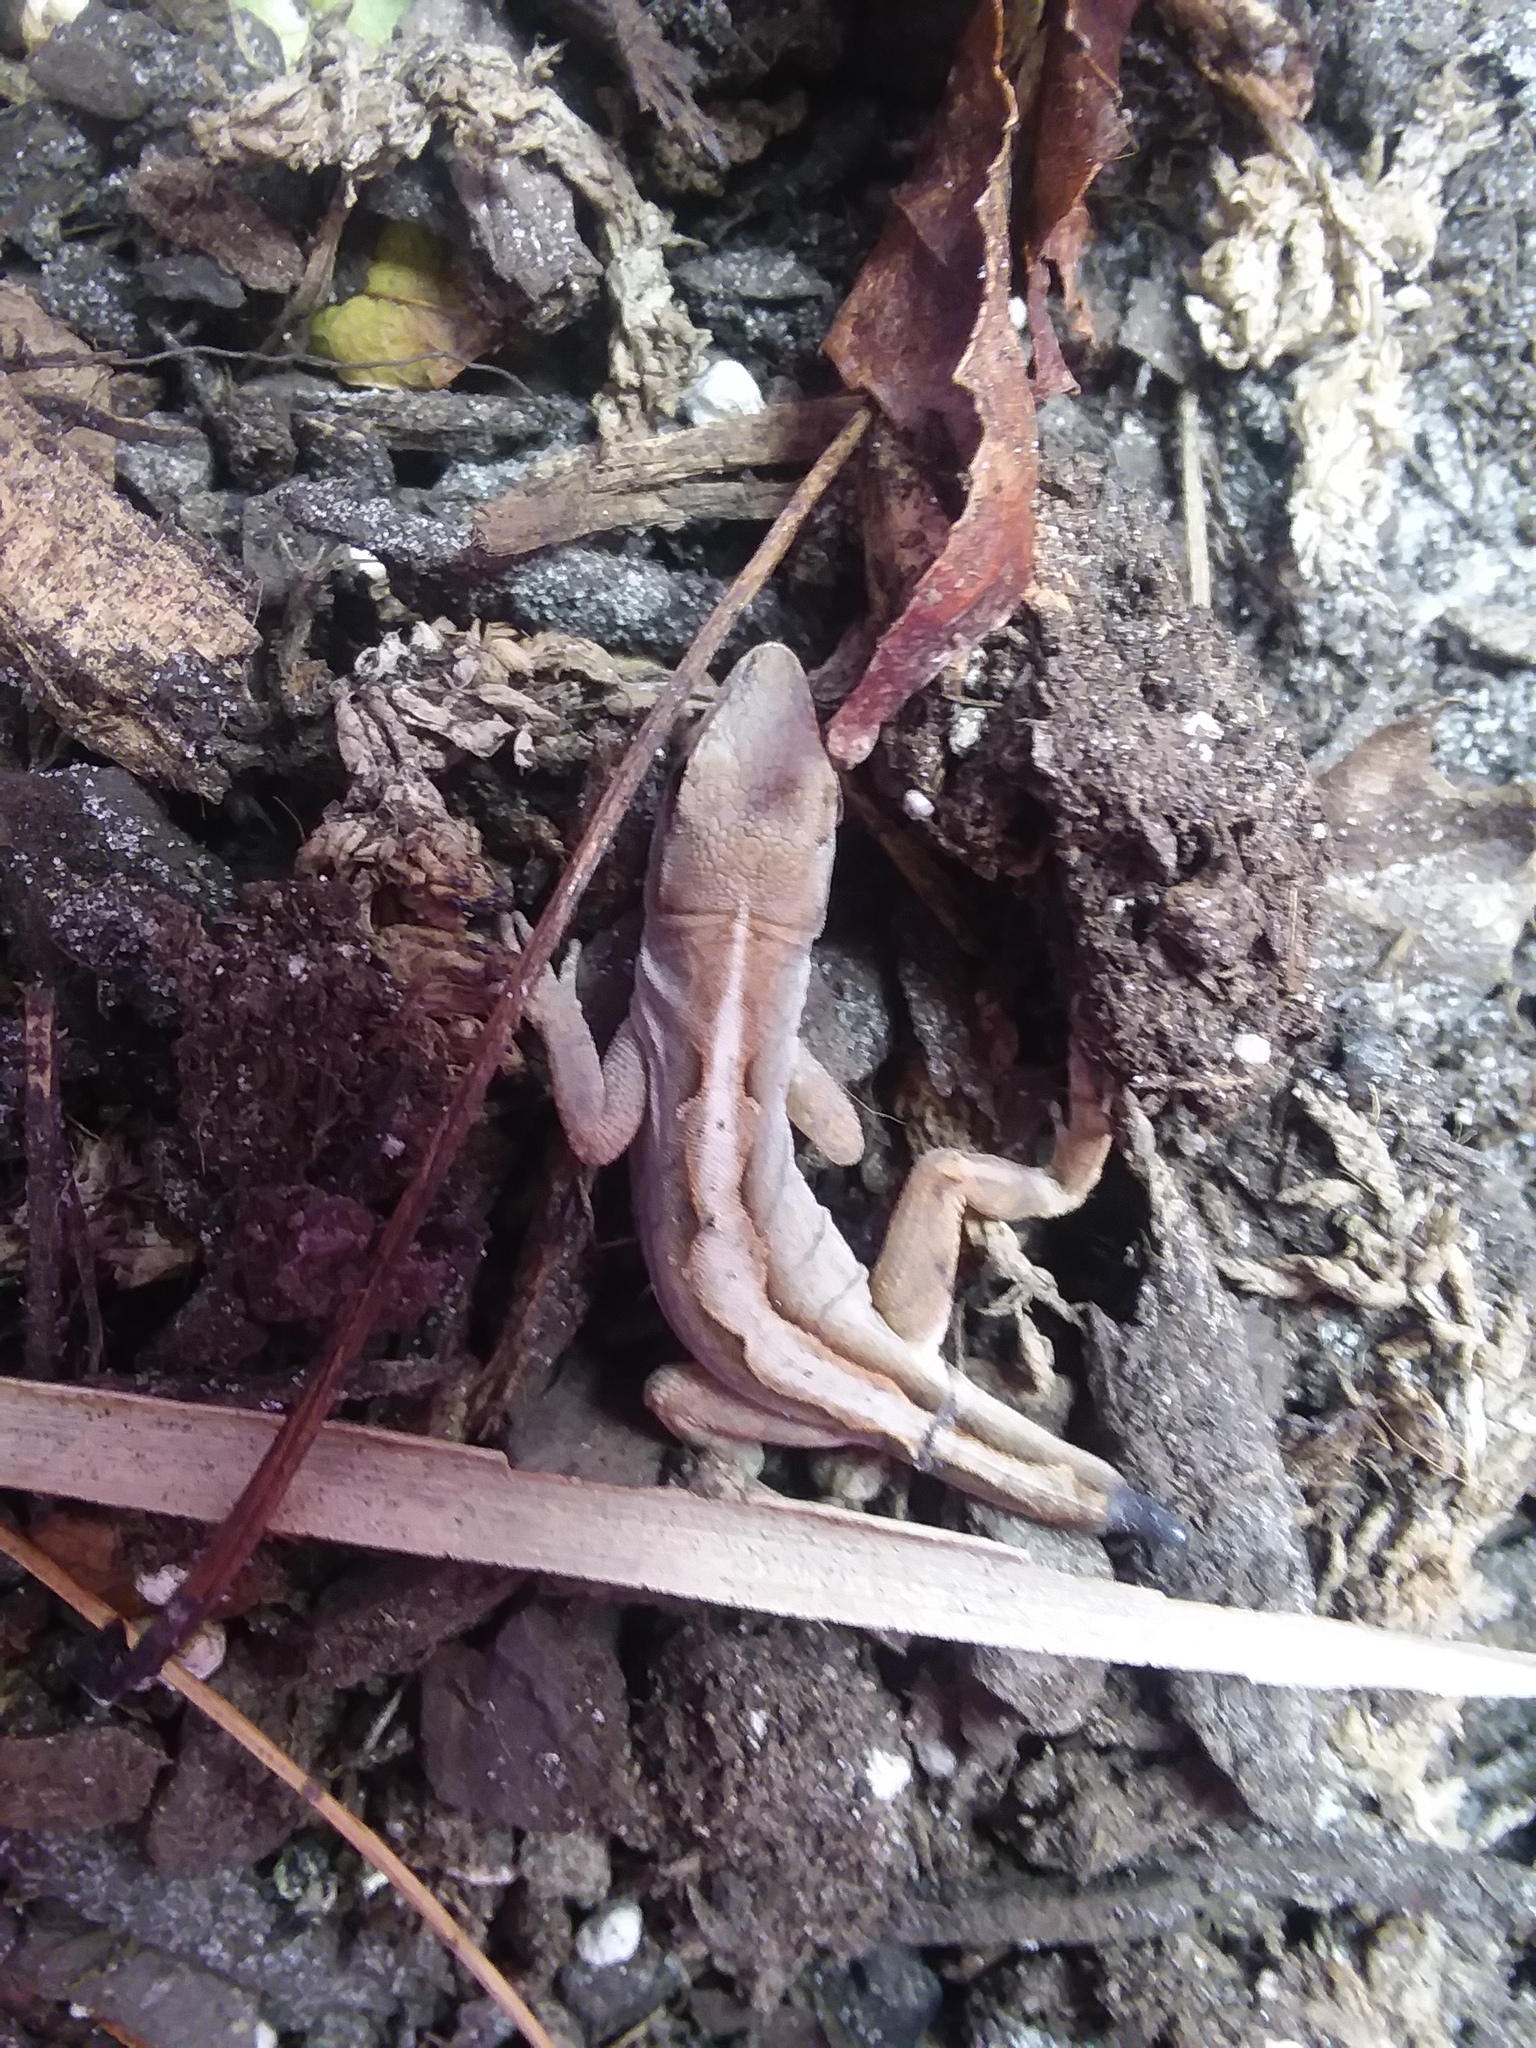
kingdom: Animalia
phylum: Chordata
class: Squamata
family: Dactyloidae
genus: Anolis
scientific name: Anolis sagrei
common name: Brown anole
